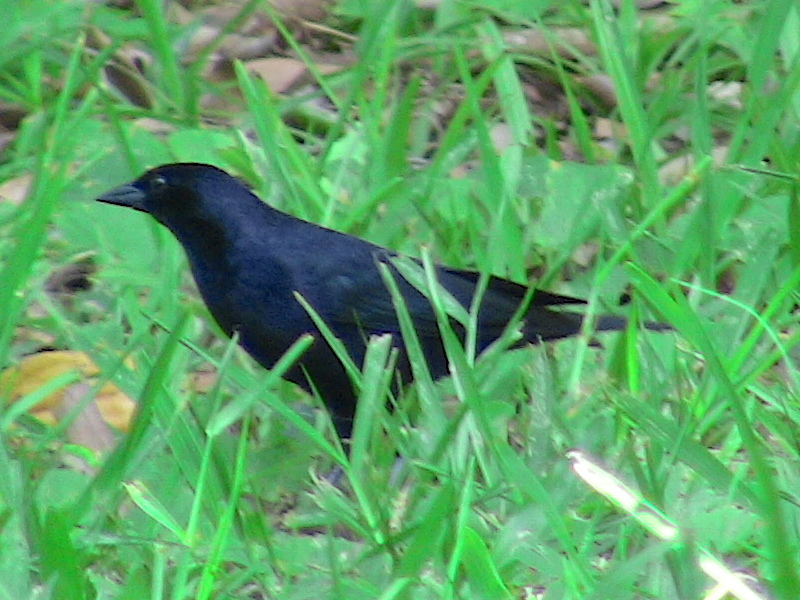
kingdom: Animalia
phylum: Chordata
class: Aves
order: Passeriformes
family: Icteridae
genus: Molothrus
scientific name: Molothrus bonariensis
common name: Shiny cowbird
